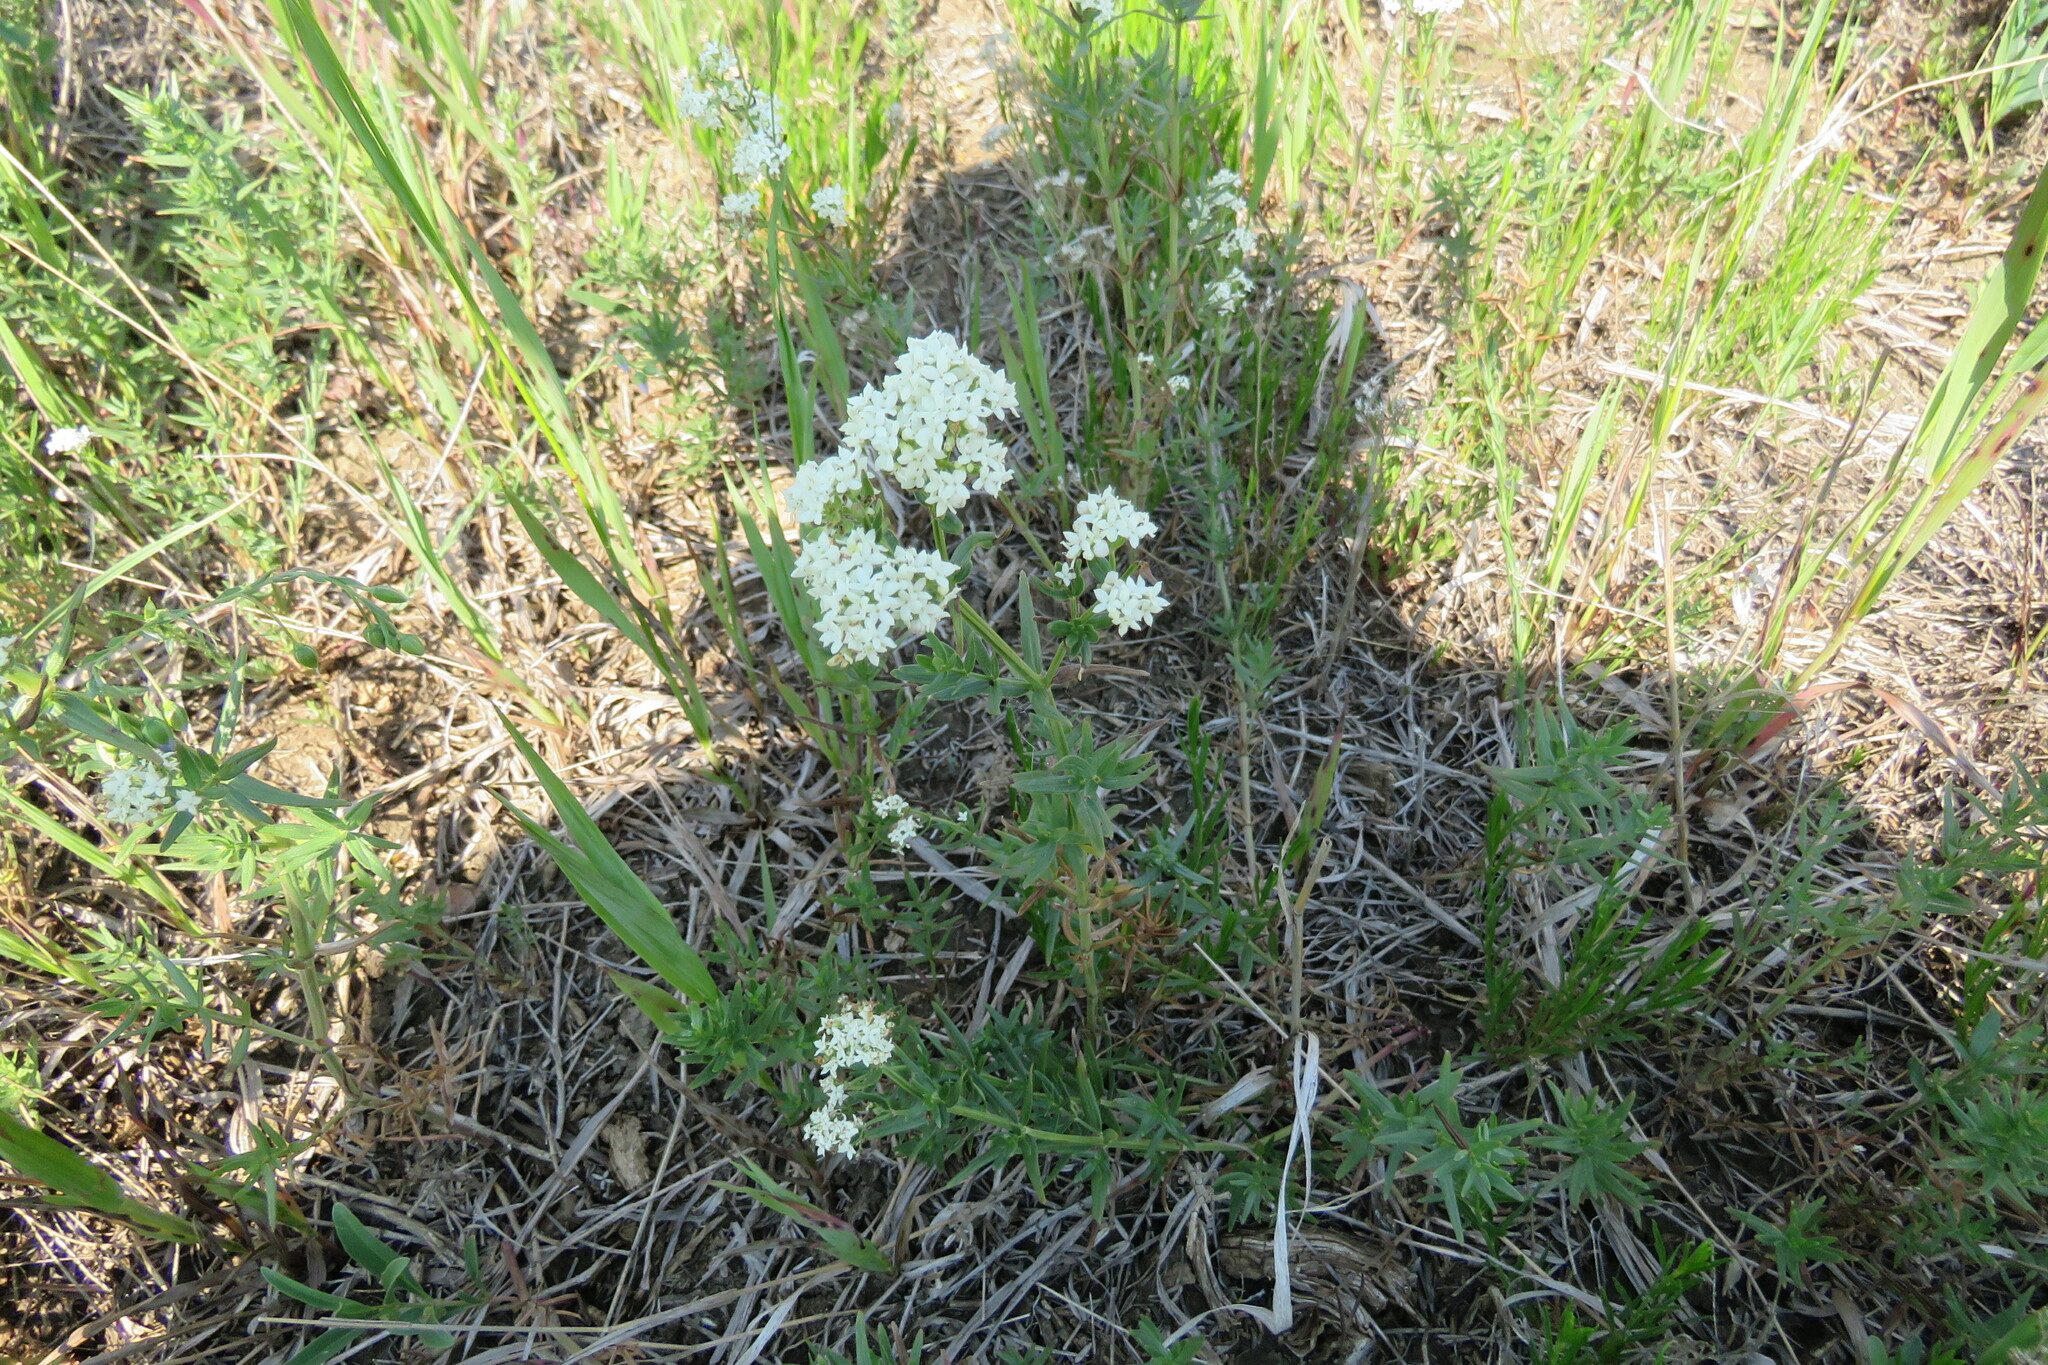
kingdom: Plantae
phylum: Tracheophyta
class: Magnoliopsida
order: Gentianales
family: Rubiaceae
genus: Galium
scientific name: Galium boreale
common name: Northern bedstraw
